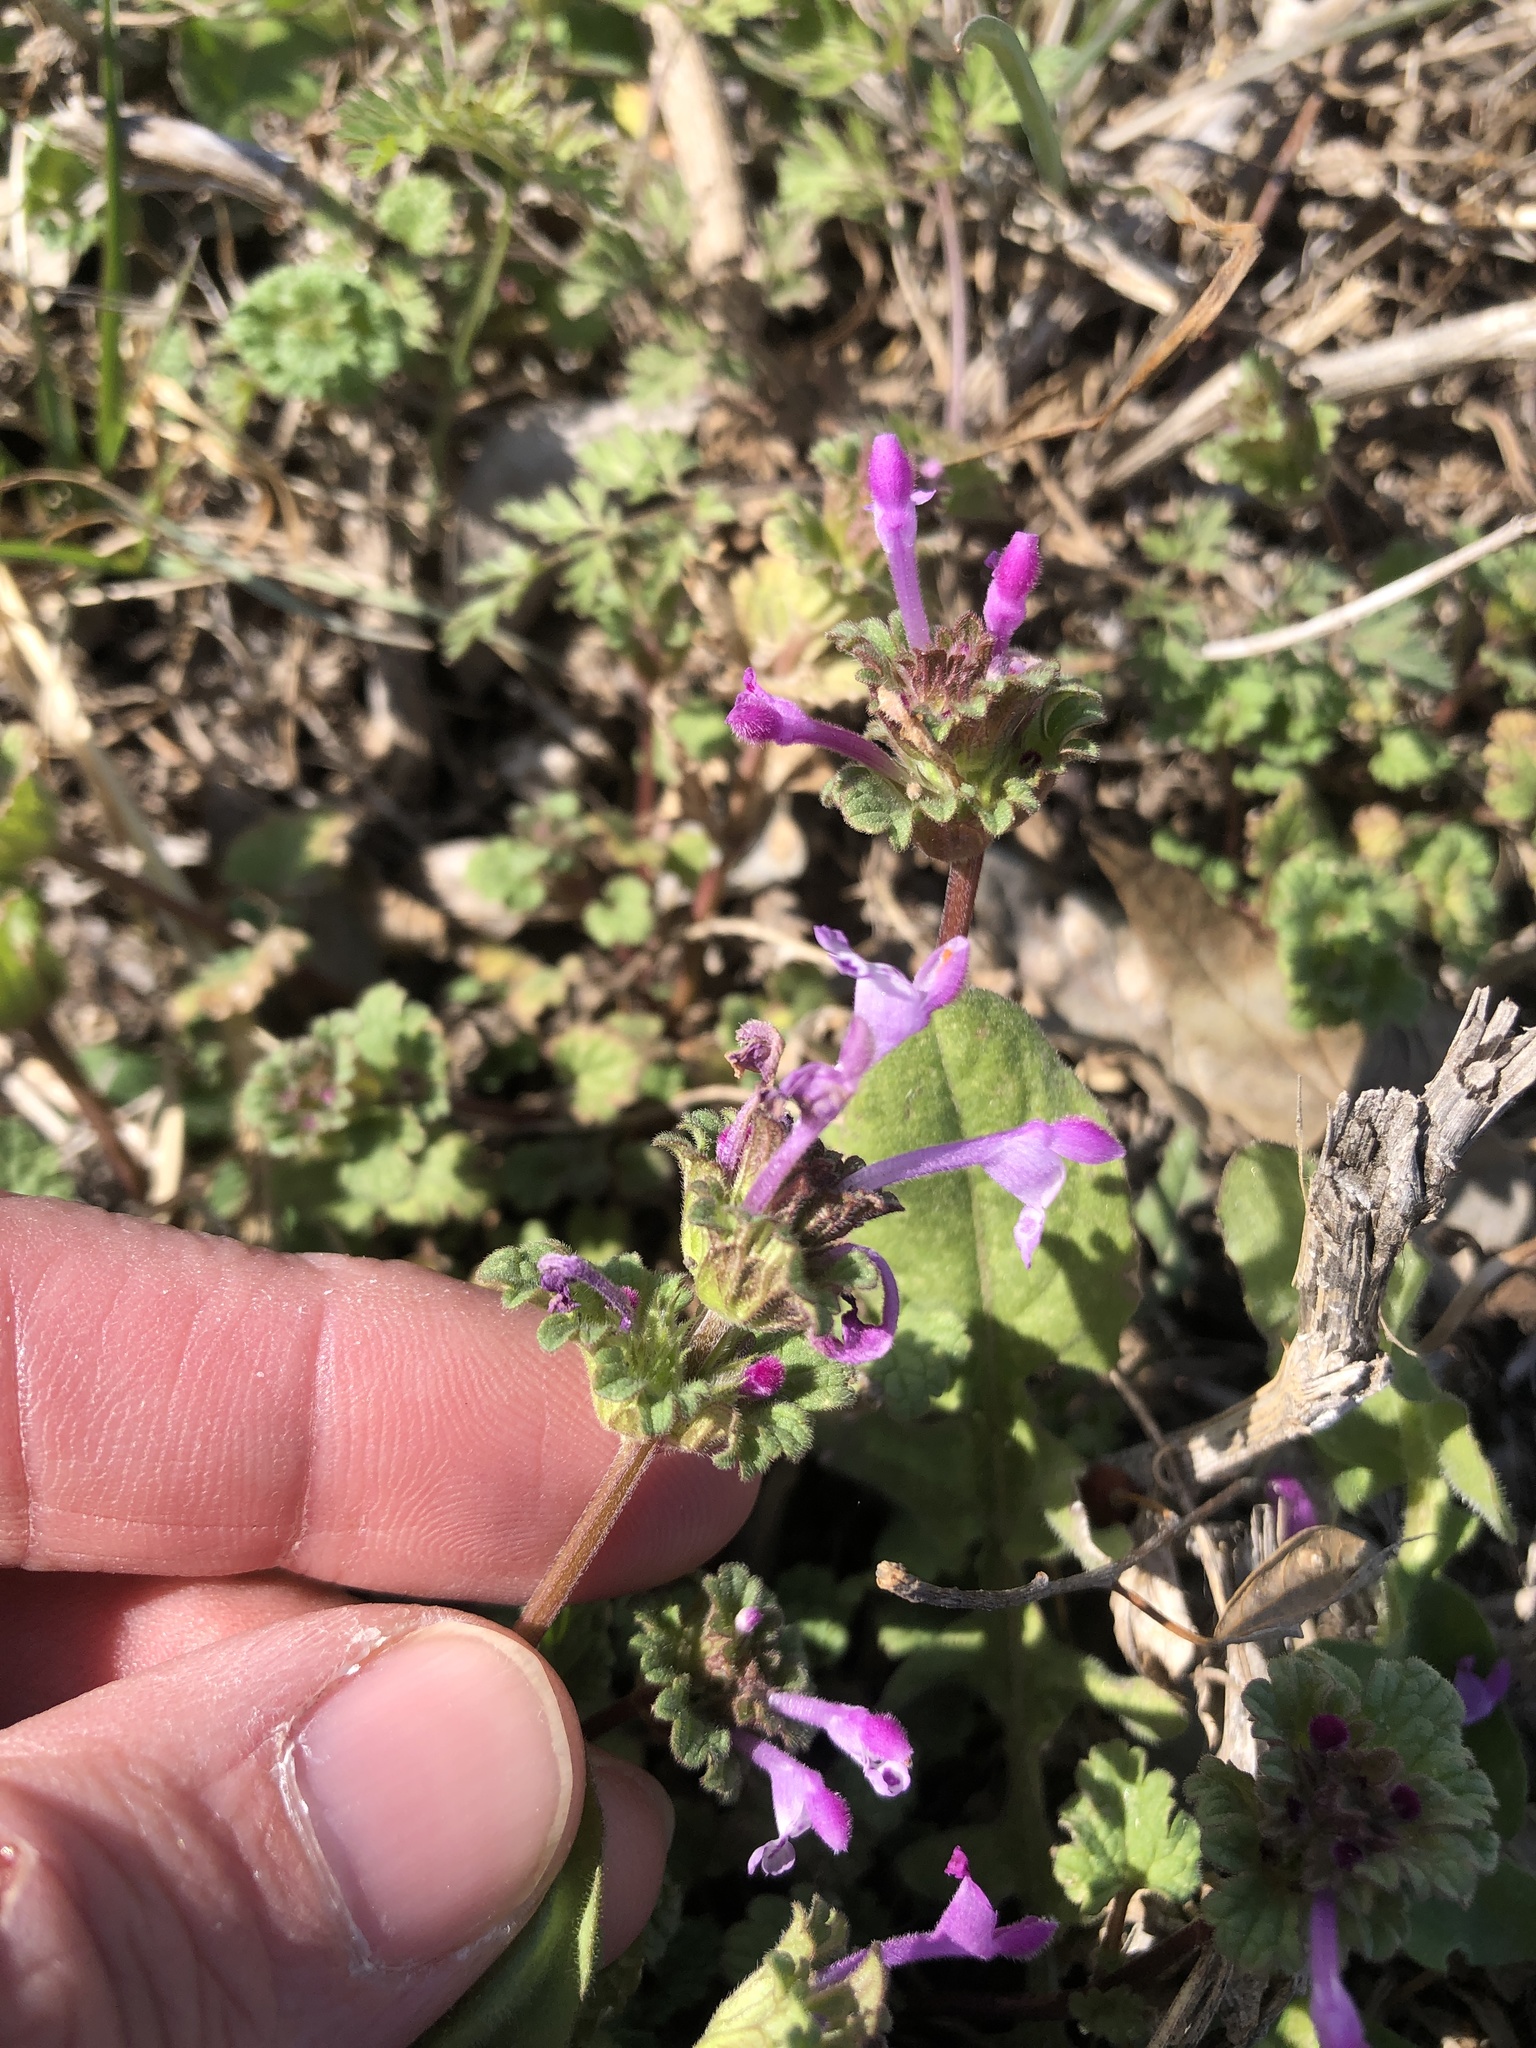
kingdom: Plantae
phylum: Tracheophyta
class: Magnoliopsida
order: Lamiales
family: Lamiaceae
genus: Lamium
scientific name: Lamium amplexicaule
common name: Henbit dead-nettle
